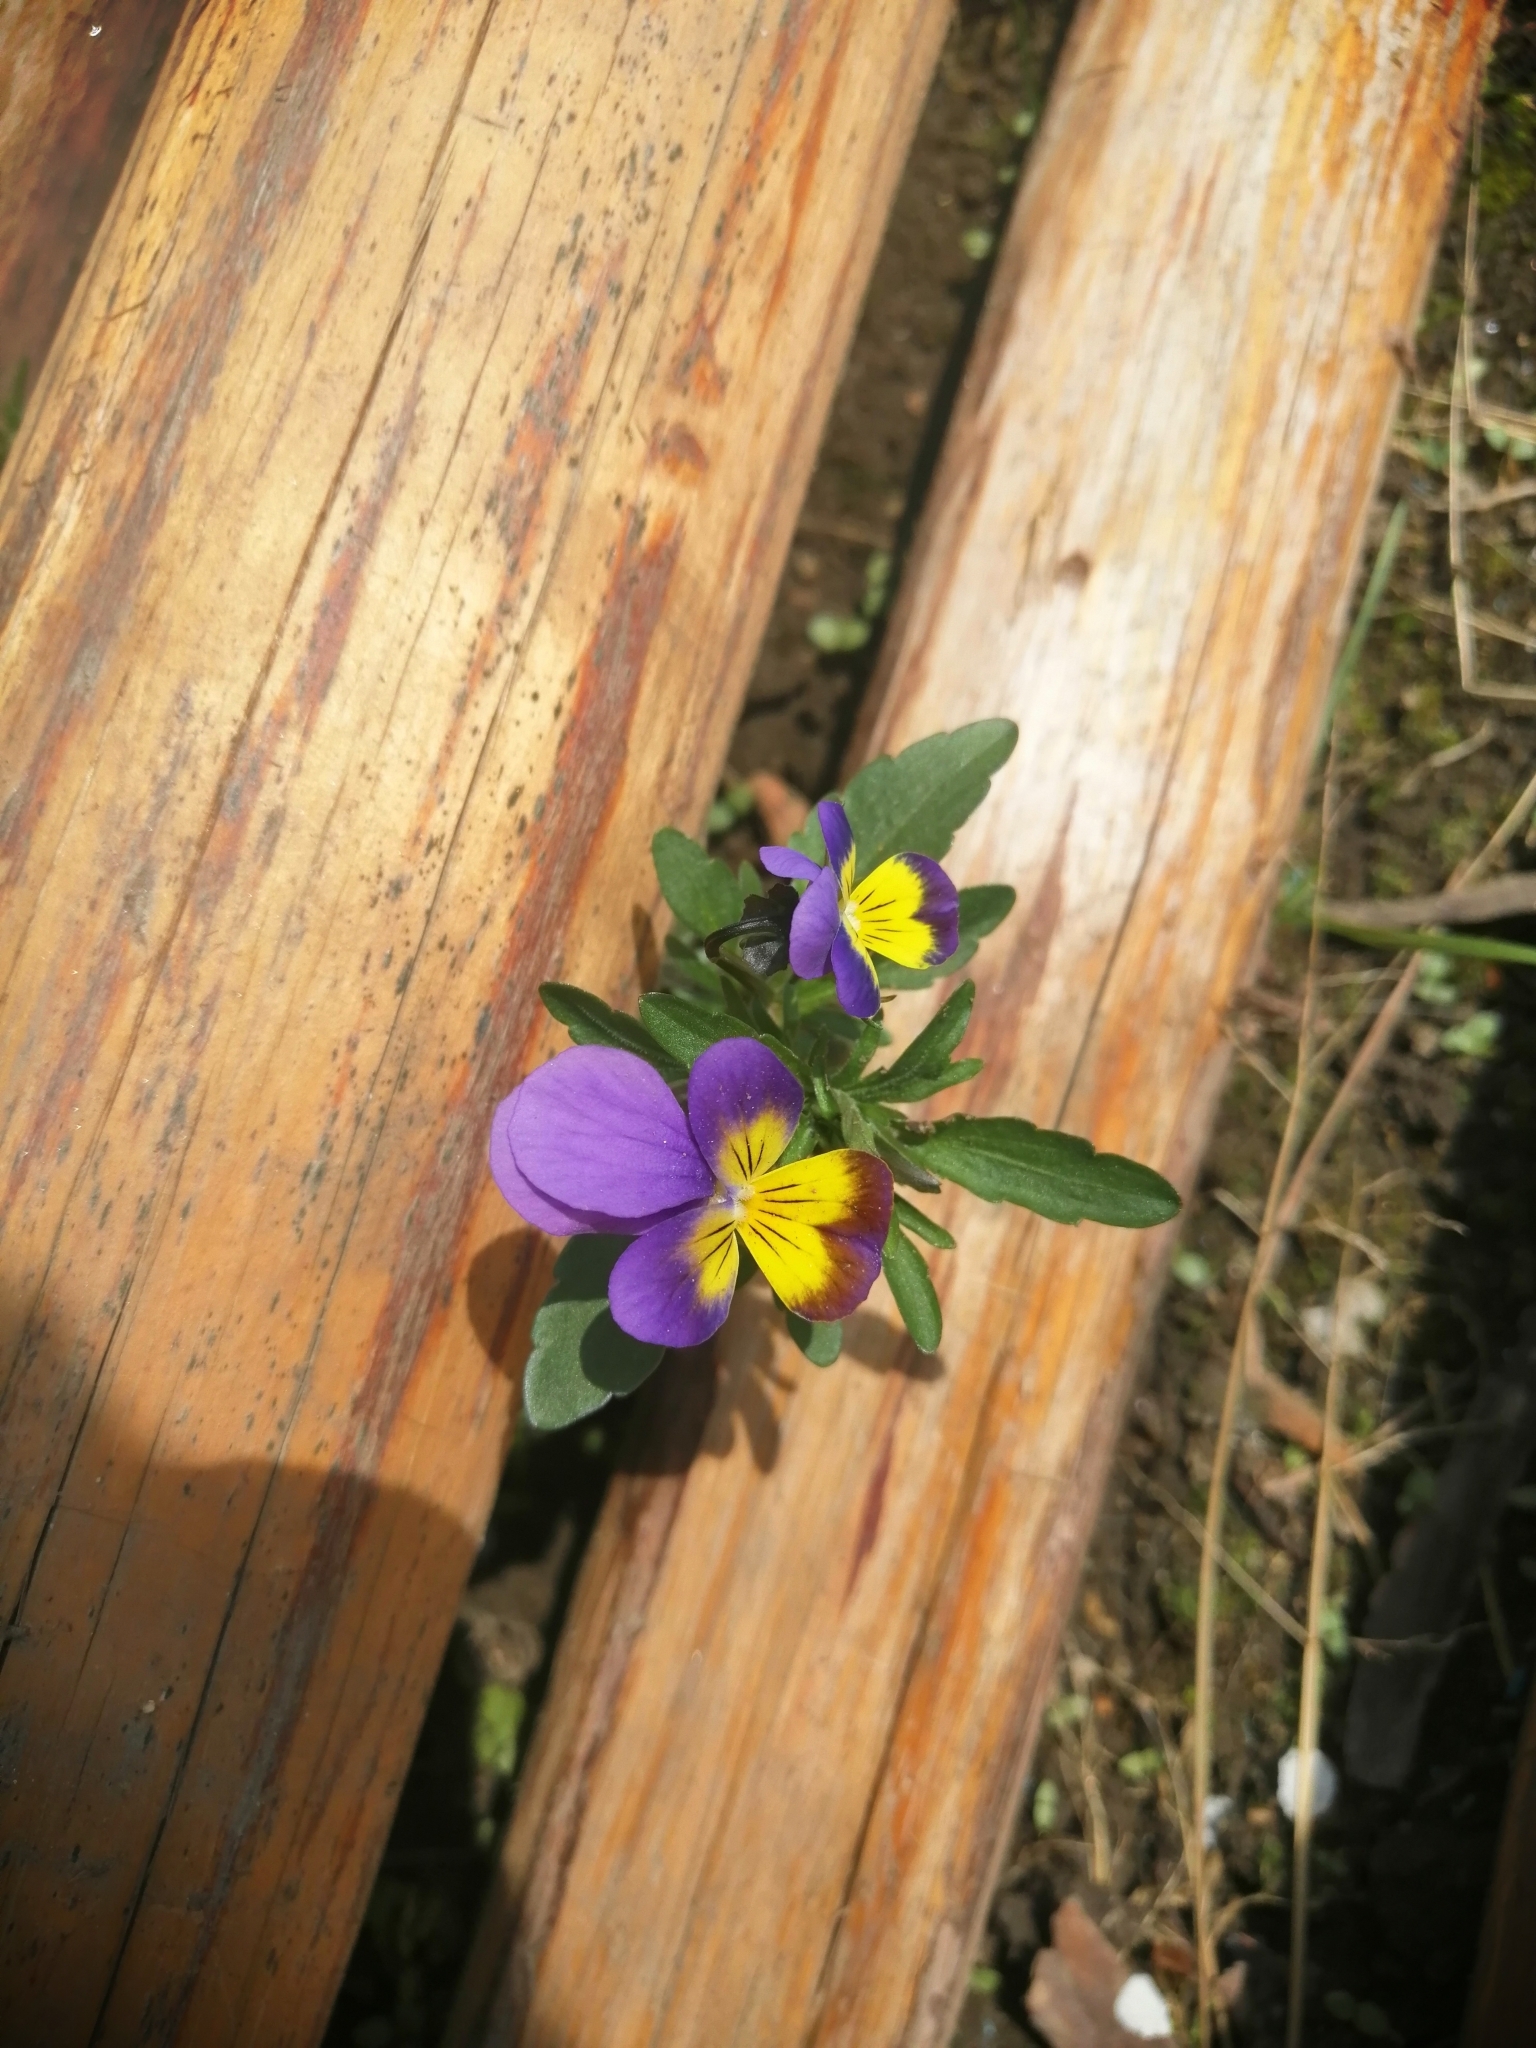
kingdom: Plantae
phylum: Tracheophyta
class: Magnoliopsida
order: Malpighiales
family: Violaceae
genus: Viola
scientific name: Viola wittrockiana
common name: Garden pansy
